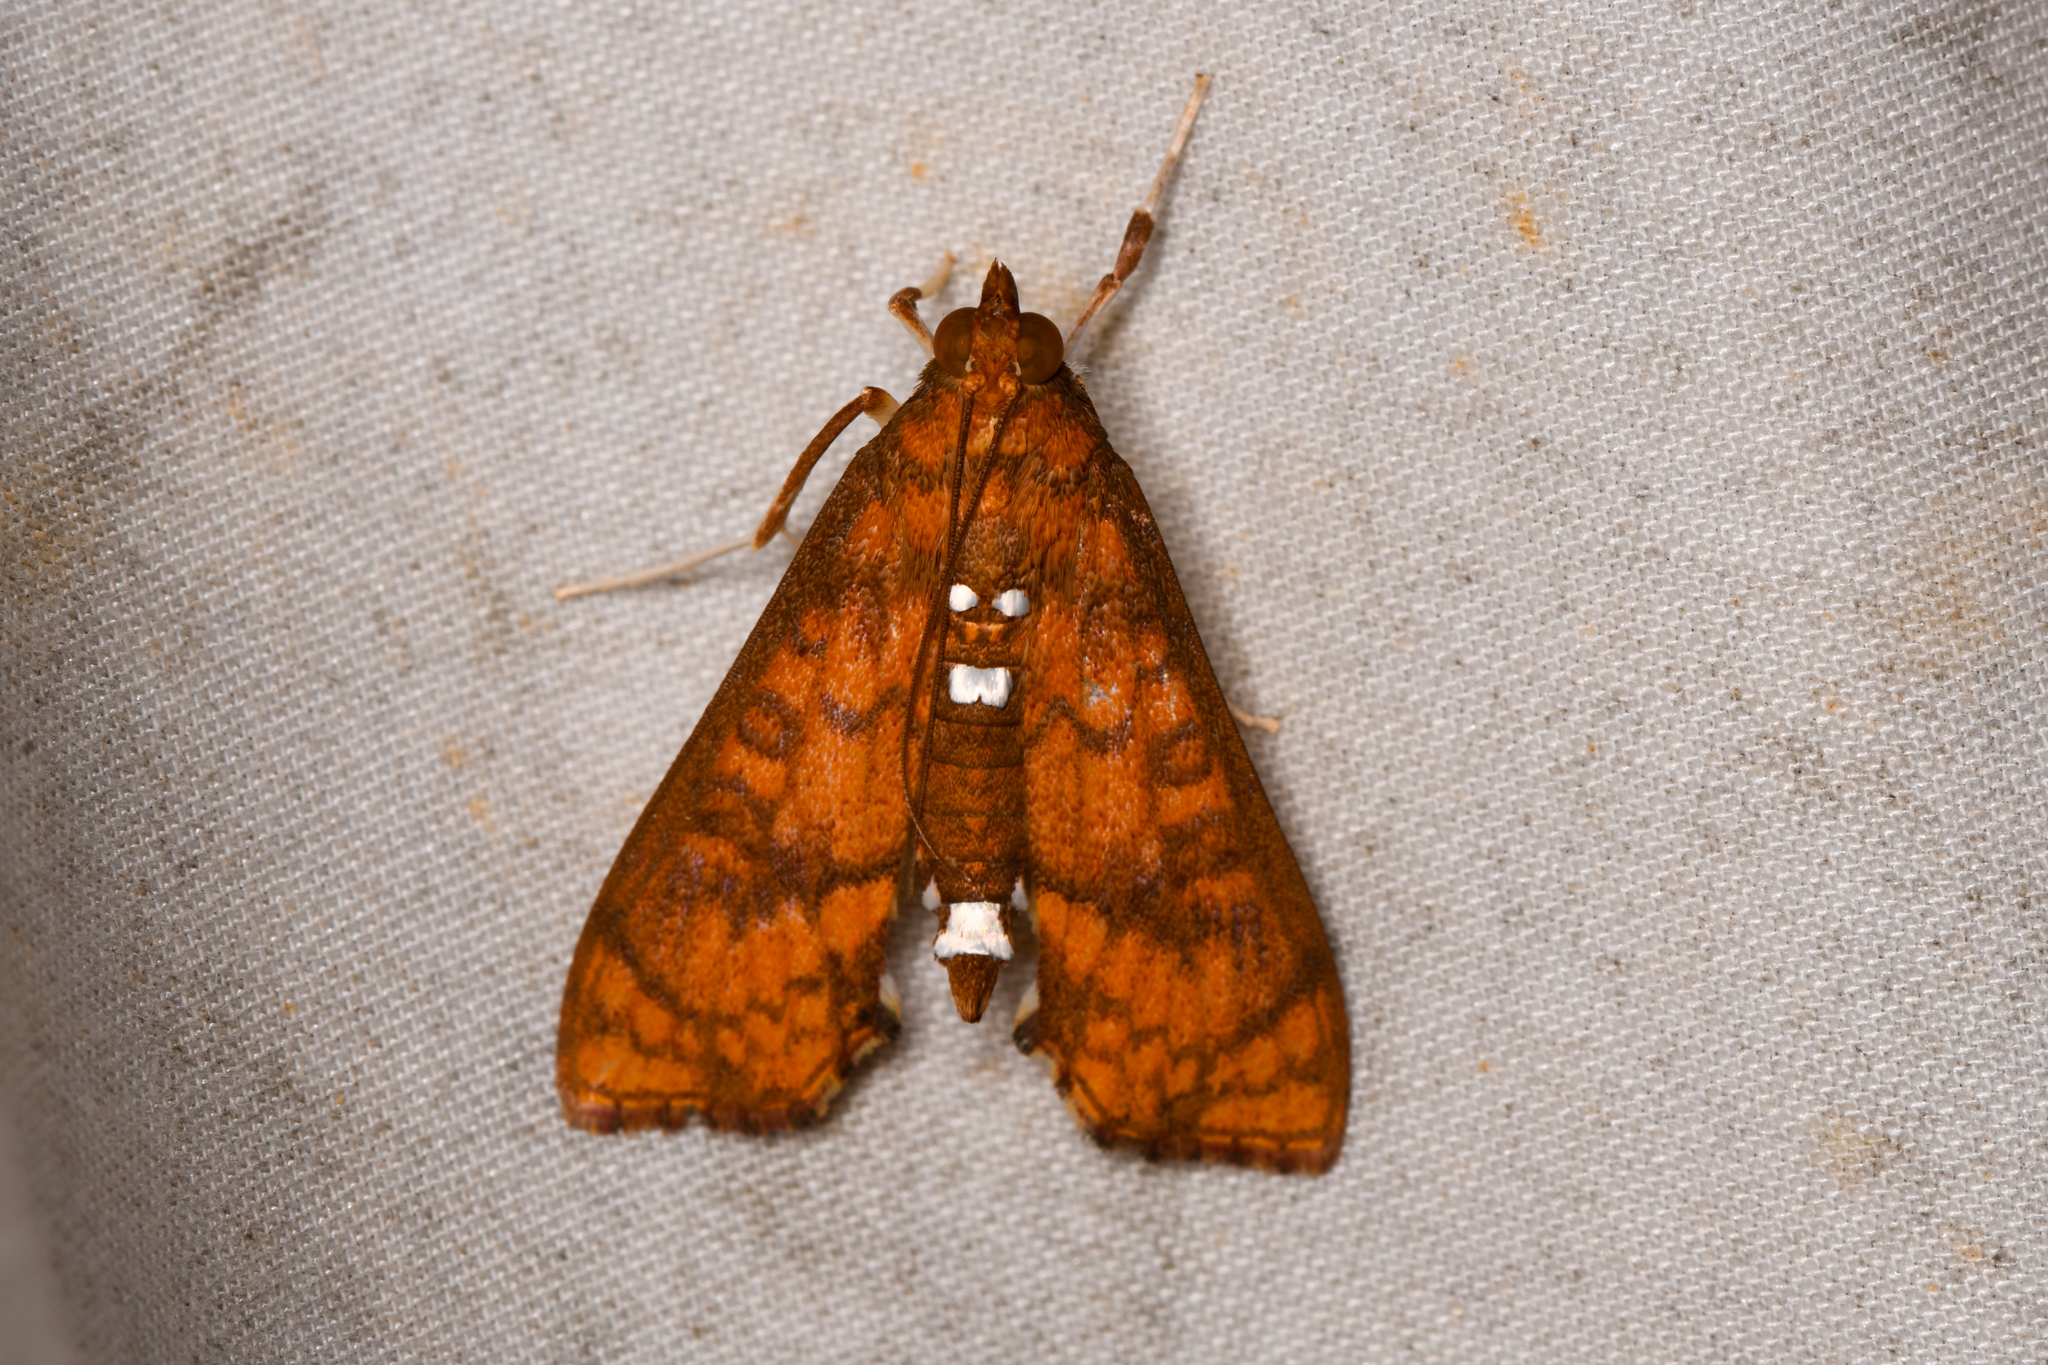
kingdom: Animalia
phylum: Arthropoda
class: Insecta
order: Lepidoptera
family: Crambidae
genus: Liopasia
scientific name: Liopasia ochracealis
